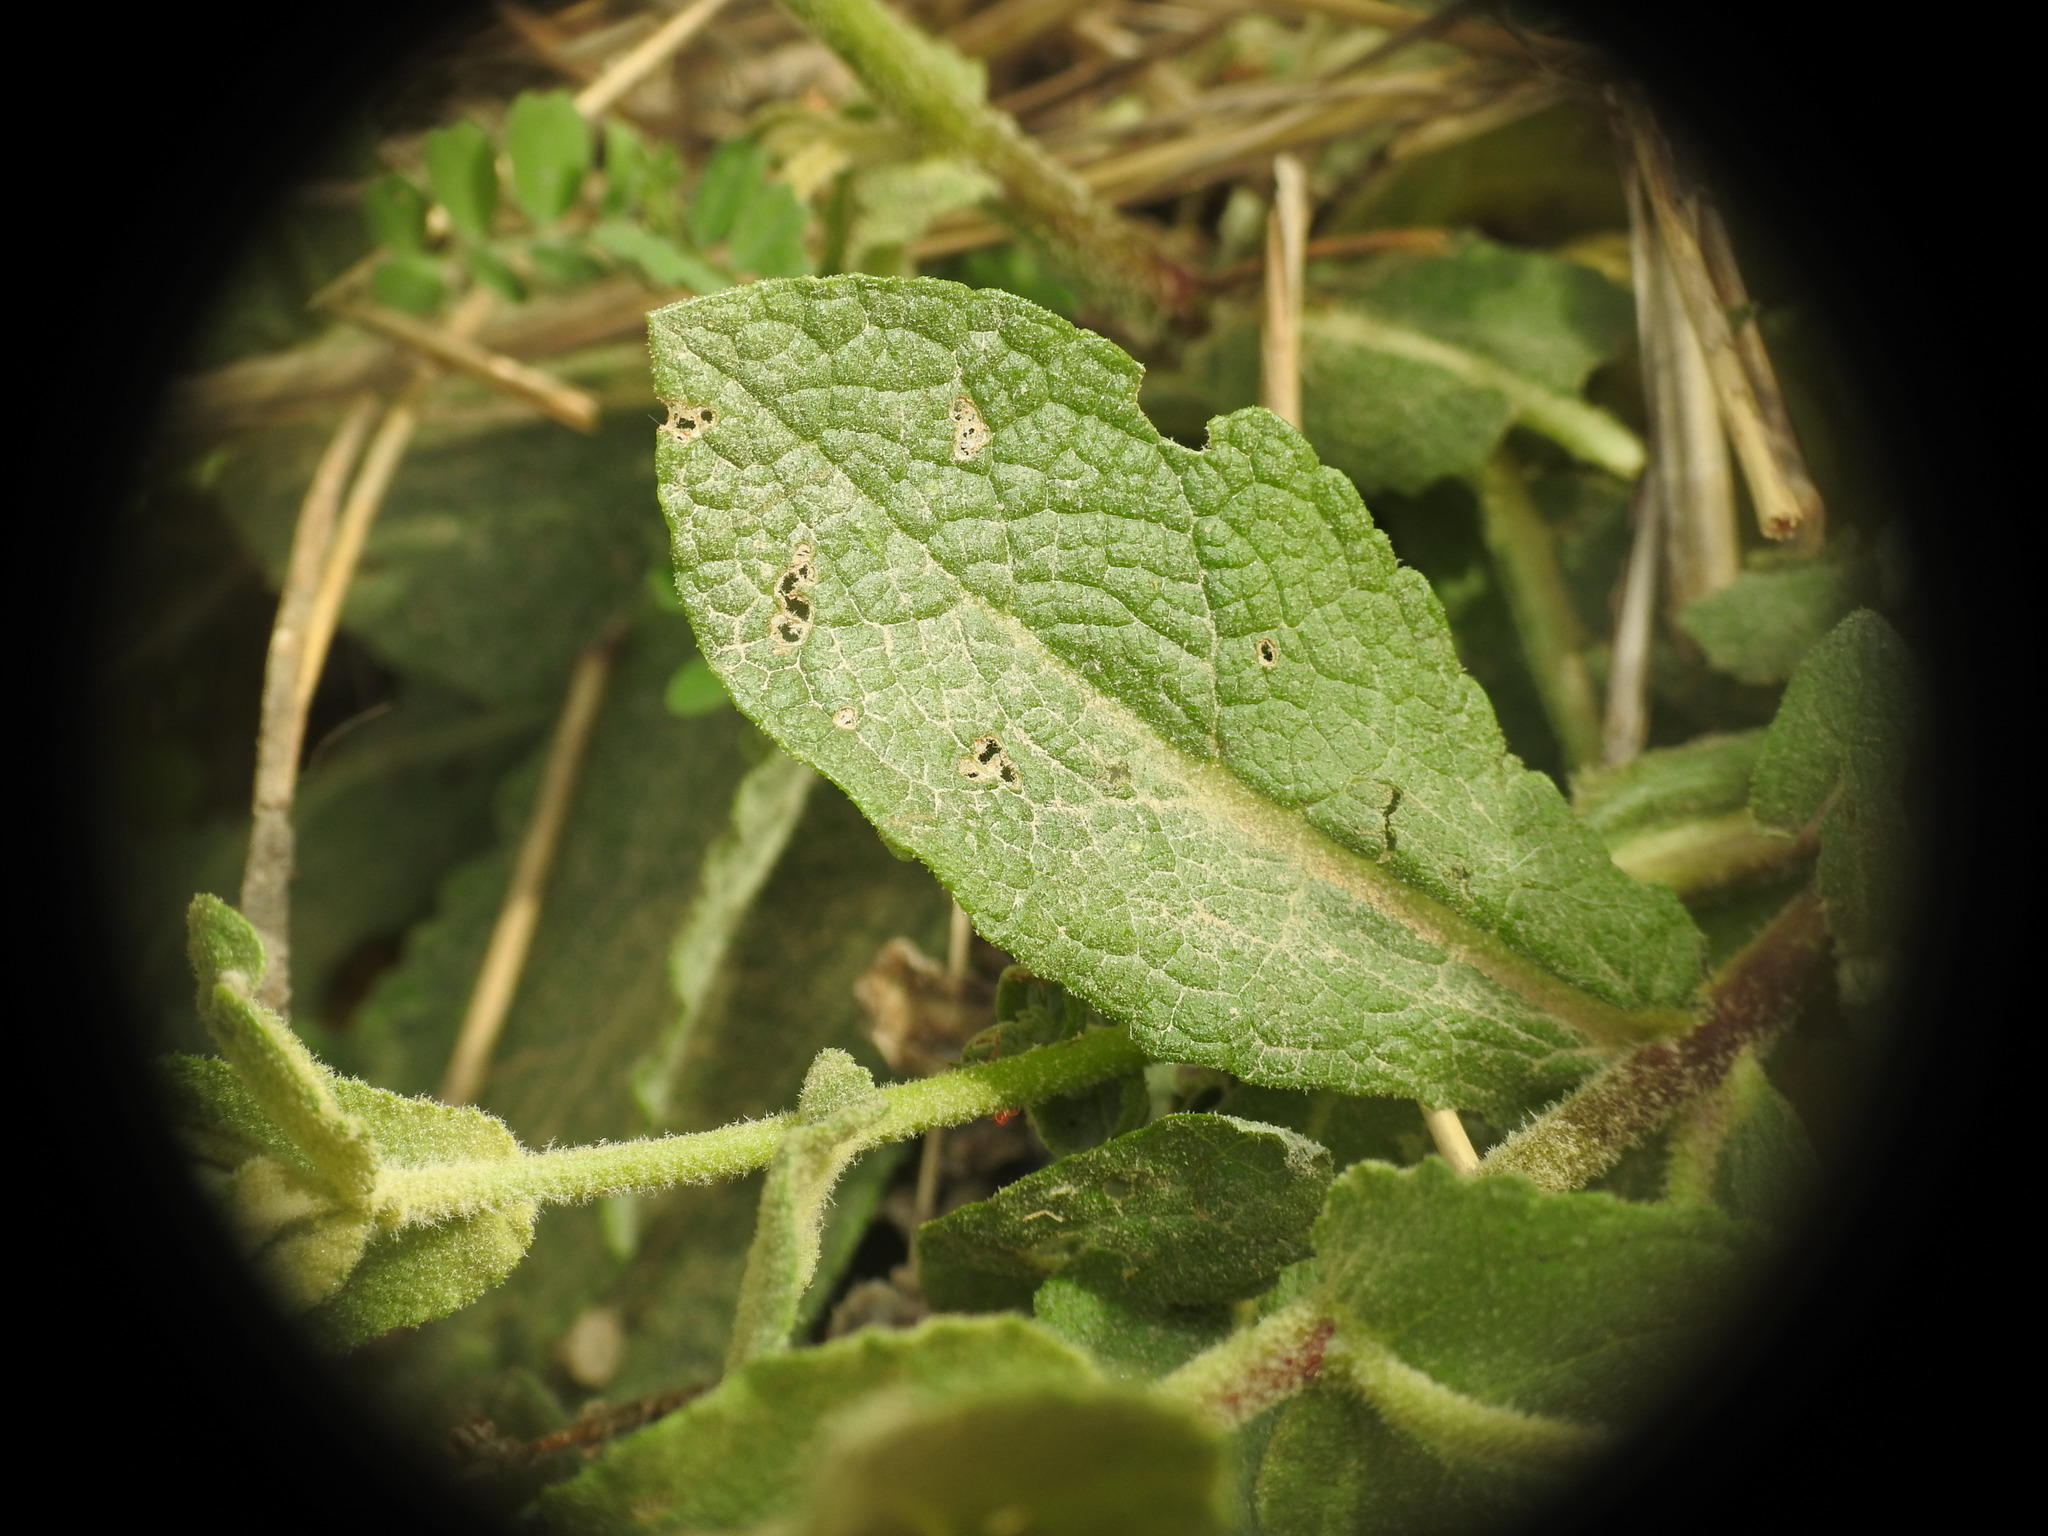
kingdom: Plantae
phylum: Tracheophyta
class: Magnoliopsida
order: Lamiales
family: Scrophulariaceae
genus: Verbascum
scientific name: Verbascum sinuatum
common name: Wavyleaf mullein
